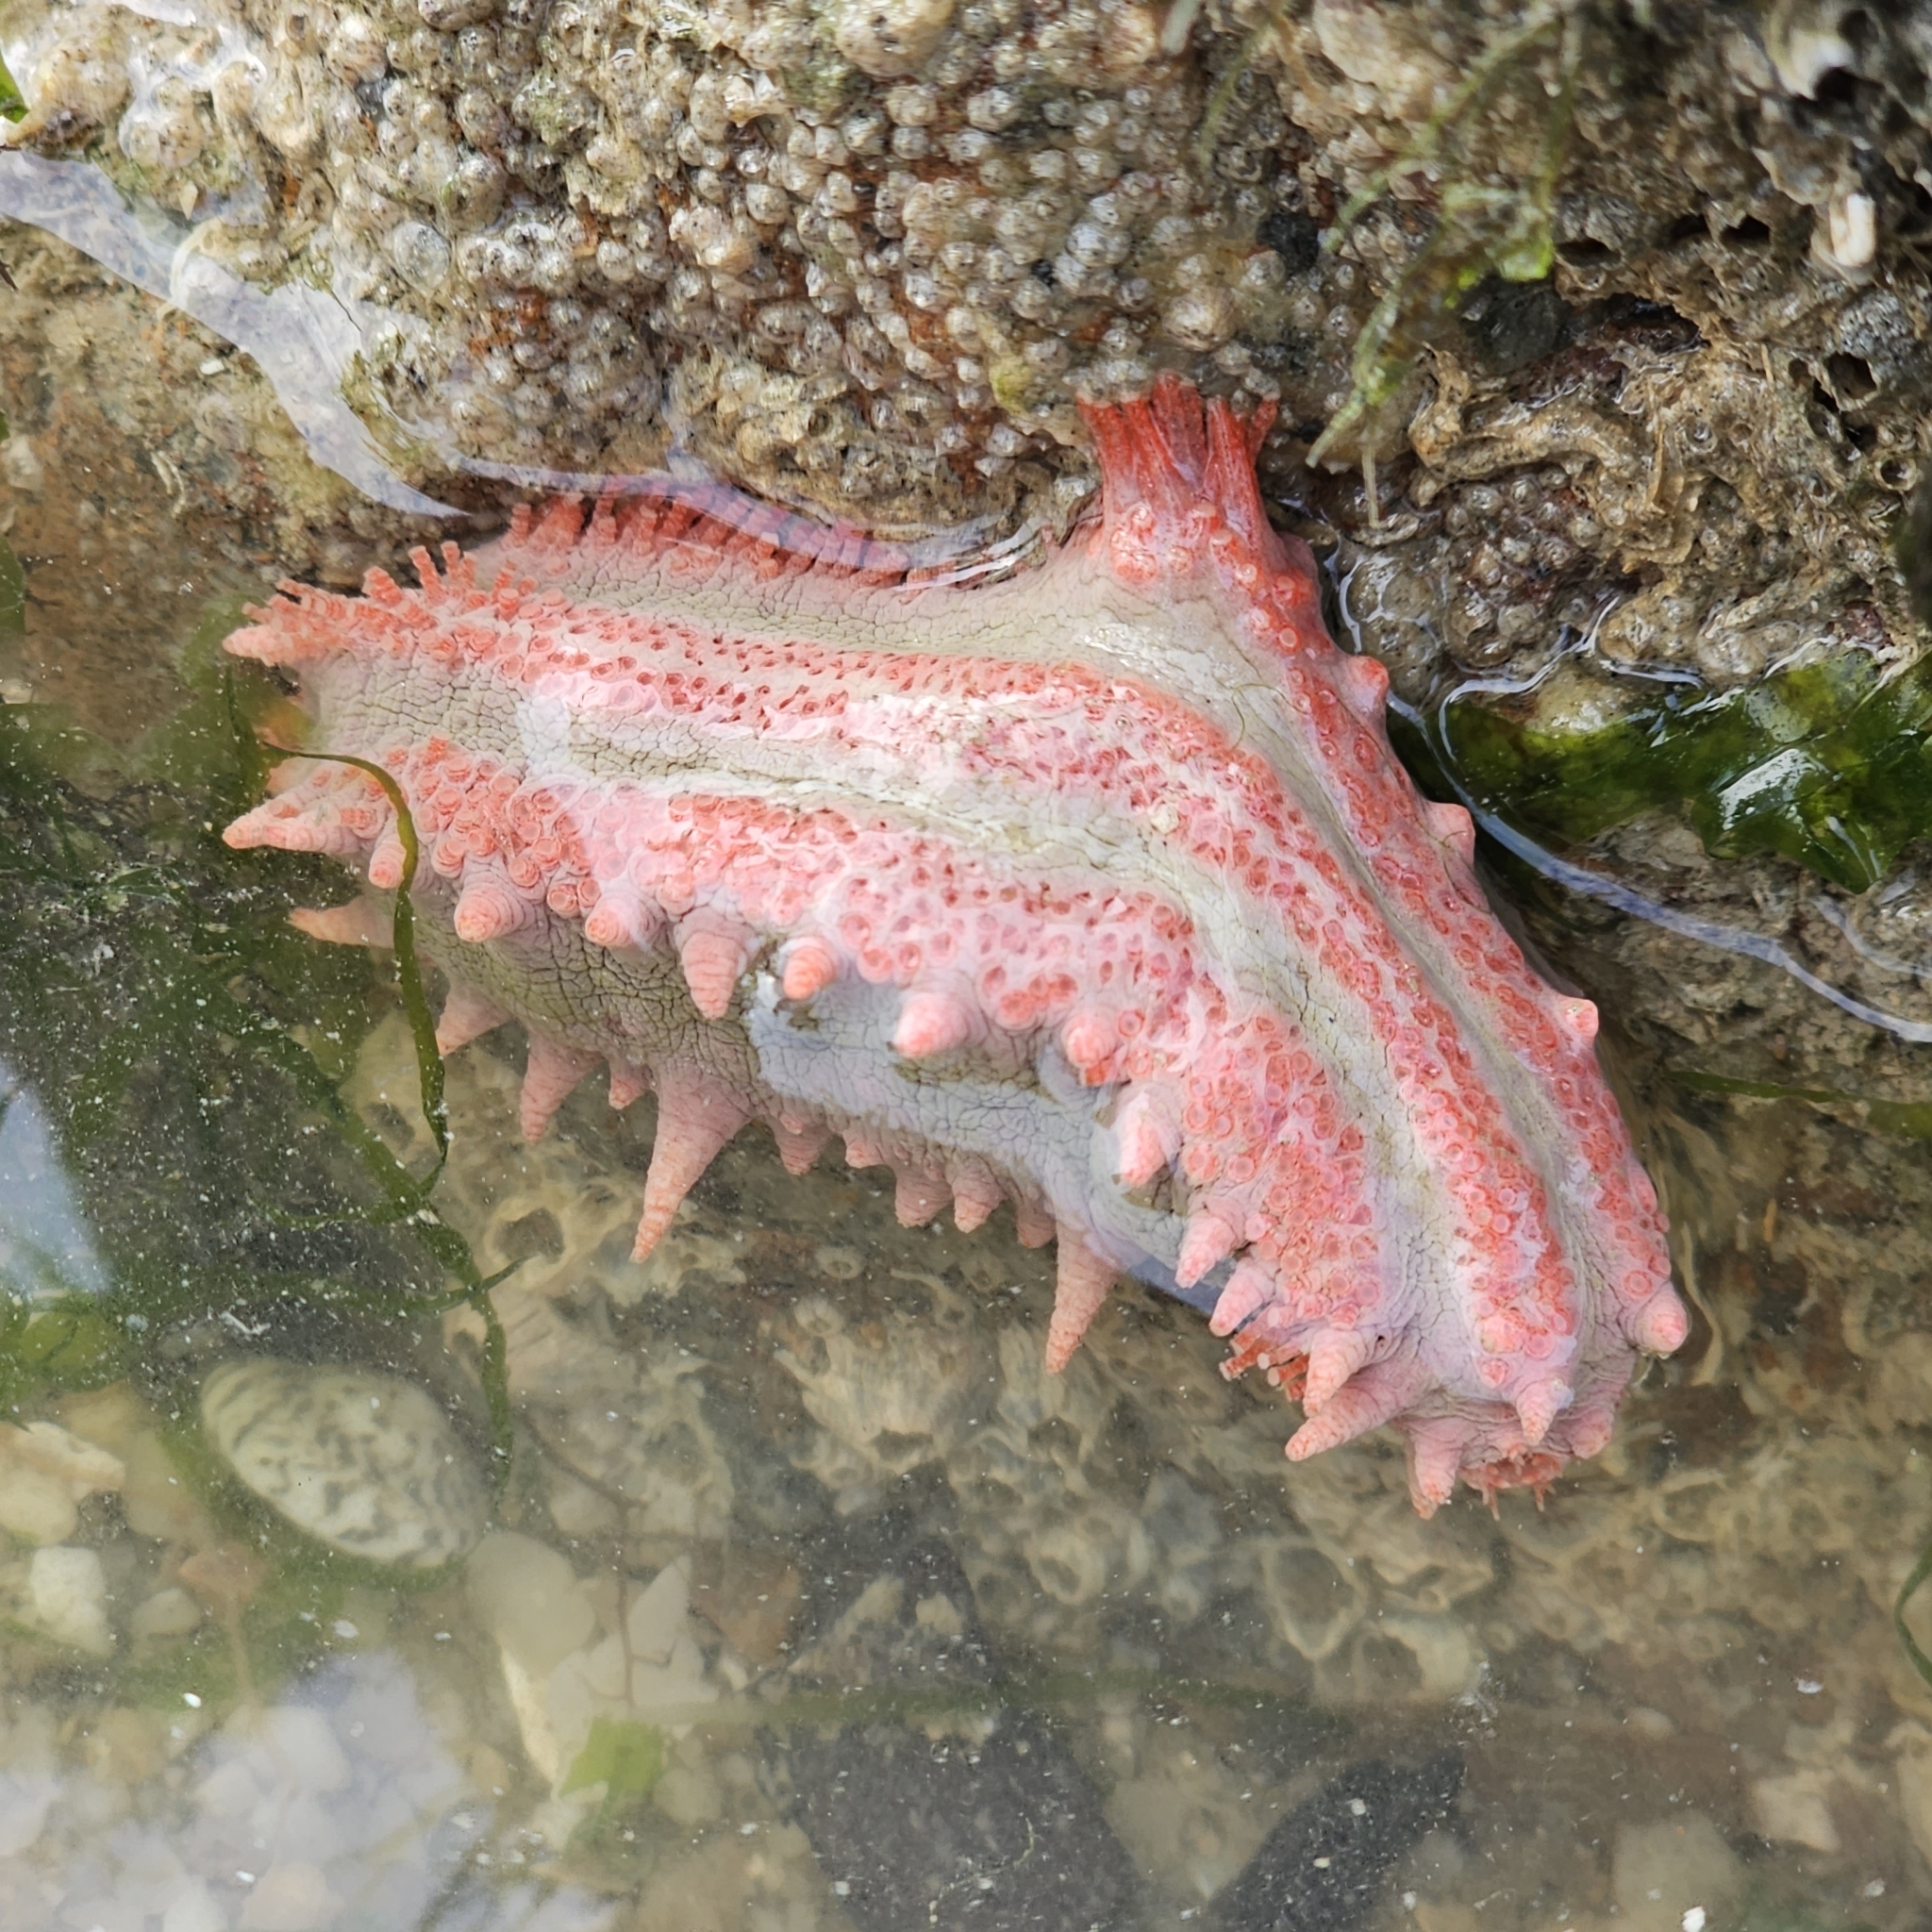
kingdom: Animalia
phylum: Echinodermata
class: Holothuroidea
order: Dendrochirotida
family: Cucumariidae
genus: Colochirus
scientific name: Colochirus quadrangularis
